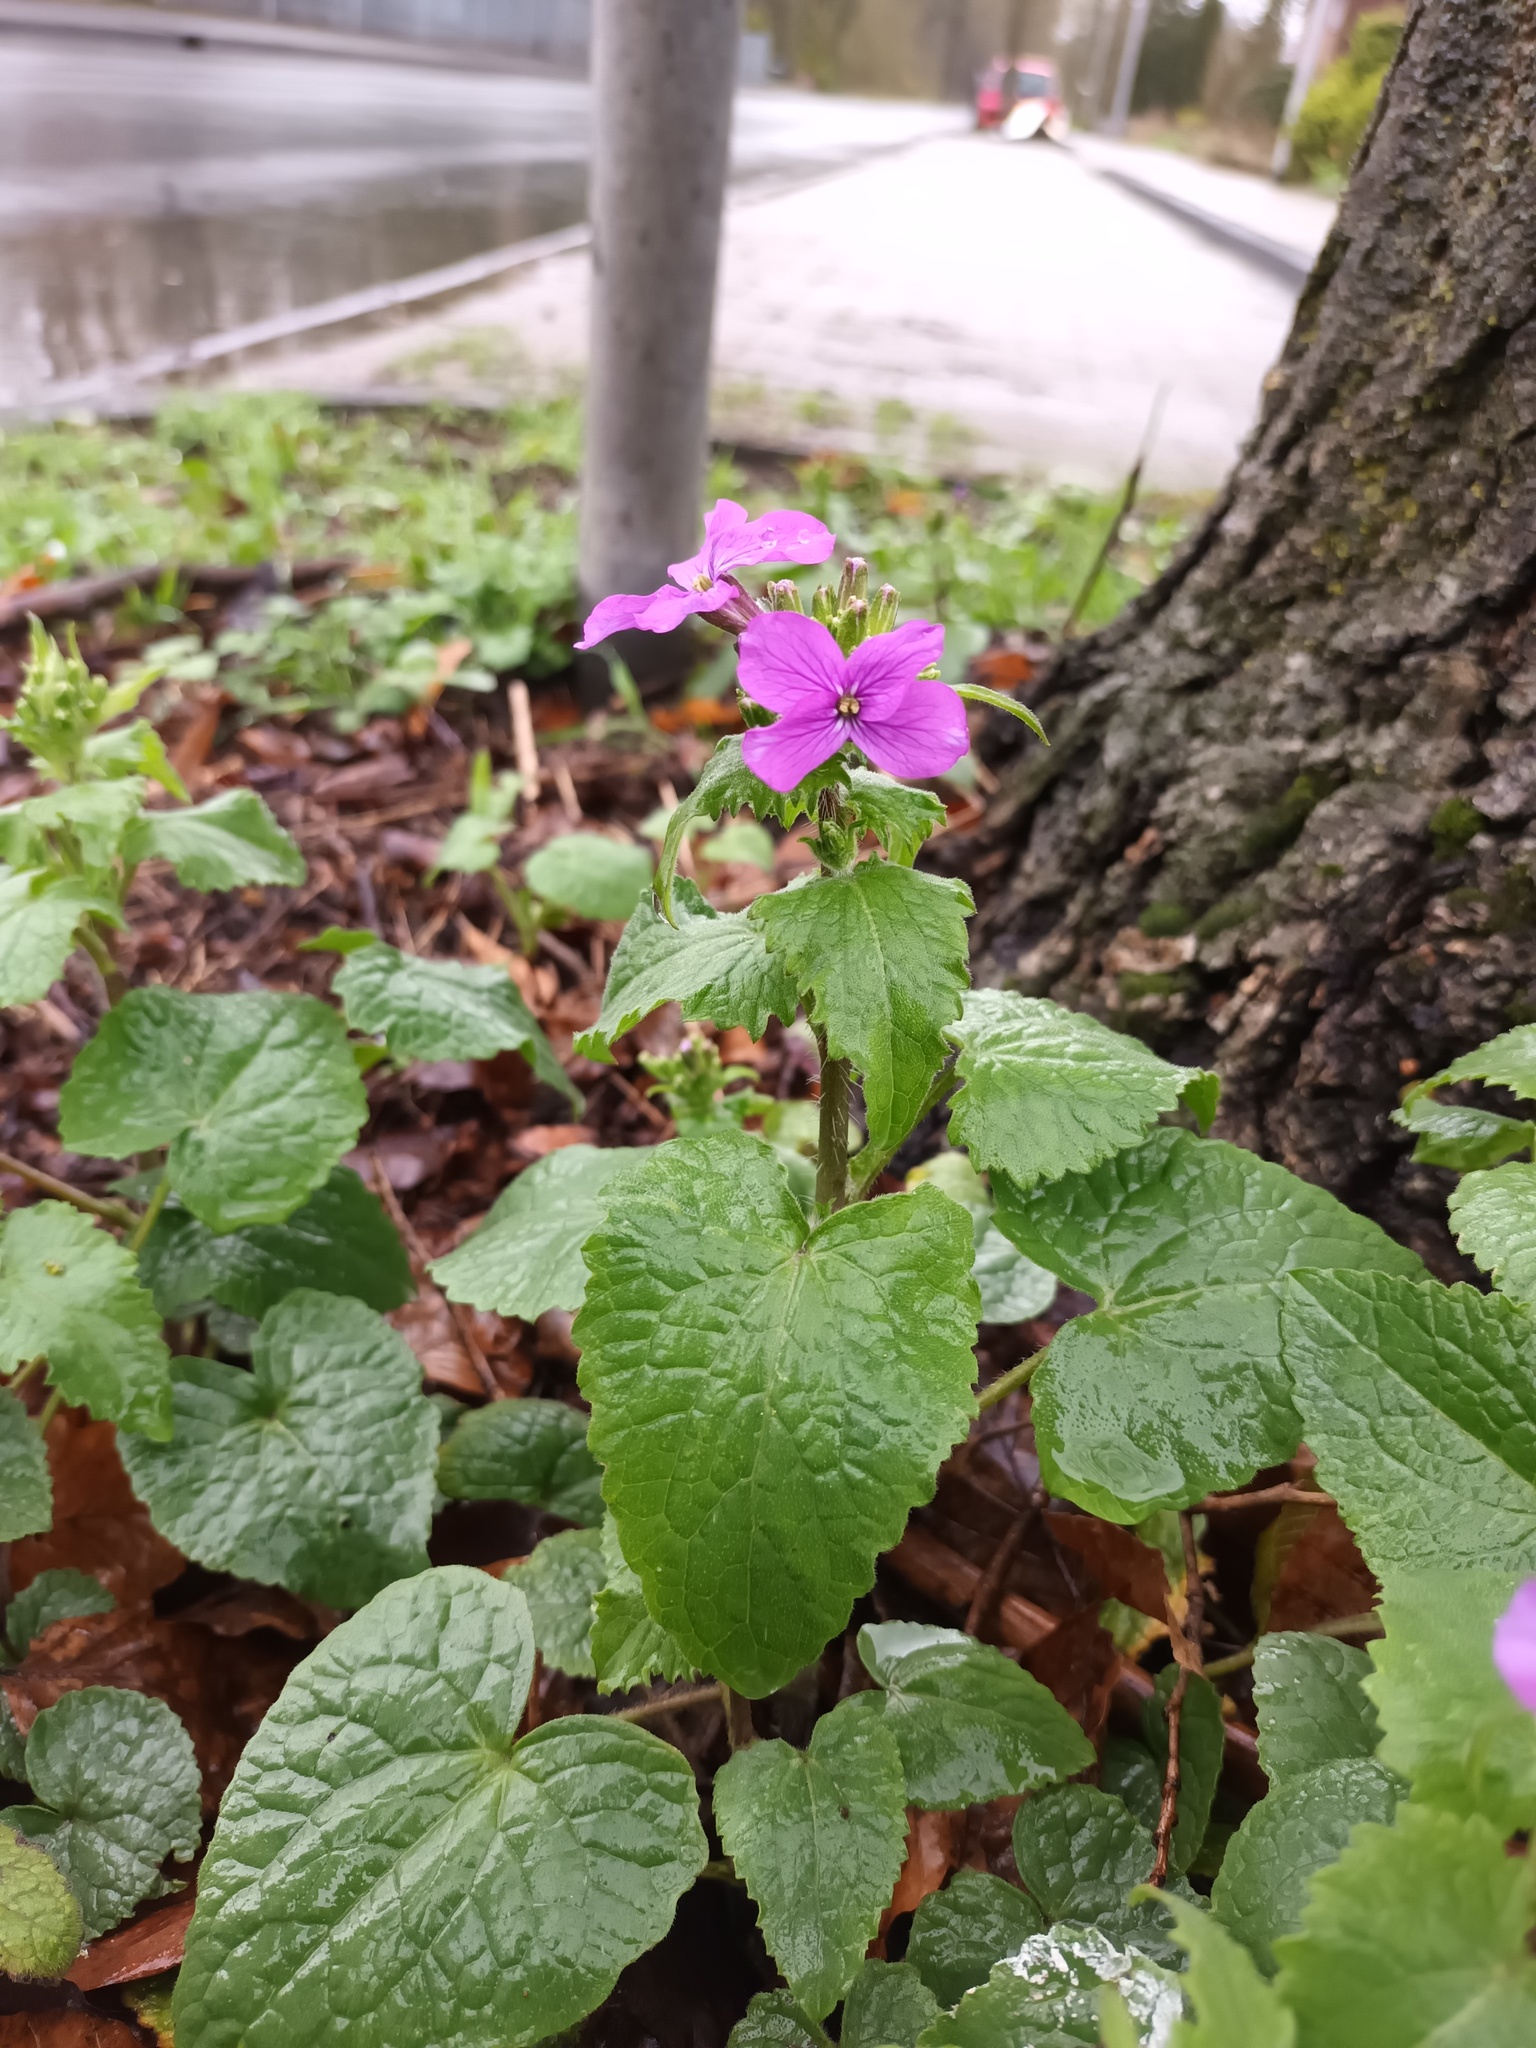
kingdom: Plantae
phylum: Tracheophyta
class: Magnoliopsida
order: Brassicales
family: Brassicaceae
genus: Lunaria
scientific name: Lunaria annua
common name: Honesty
